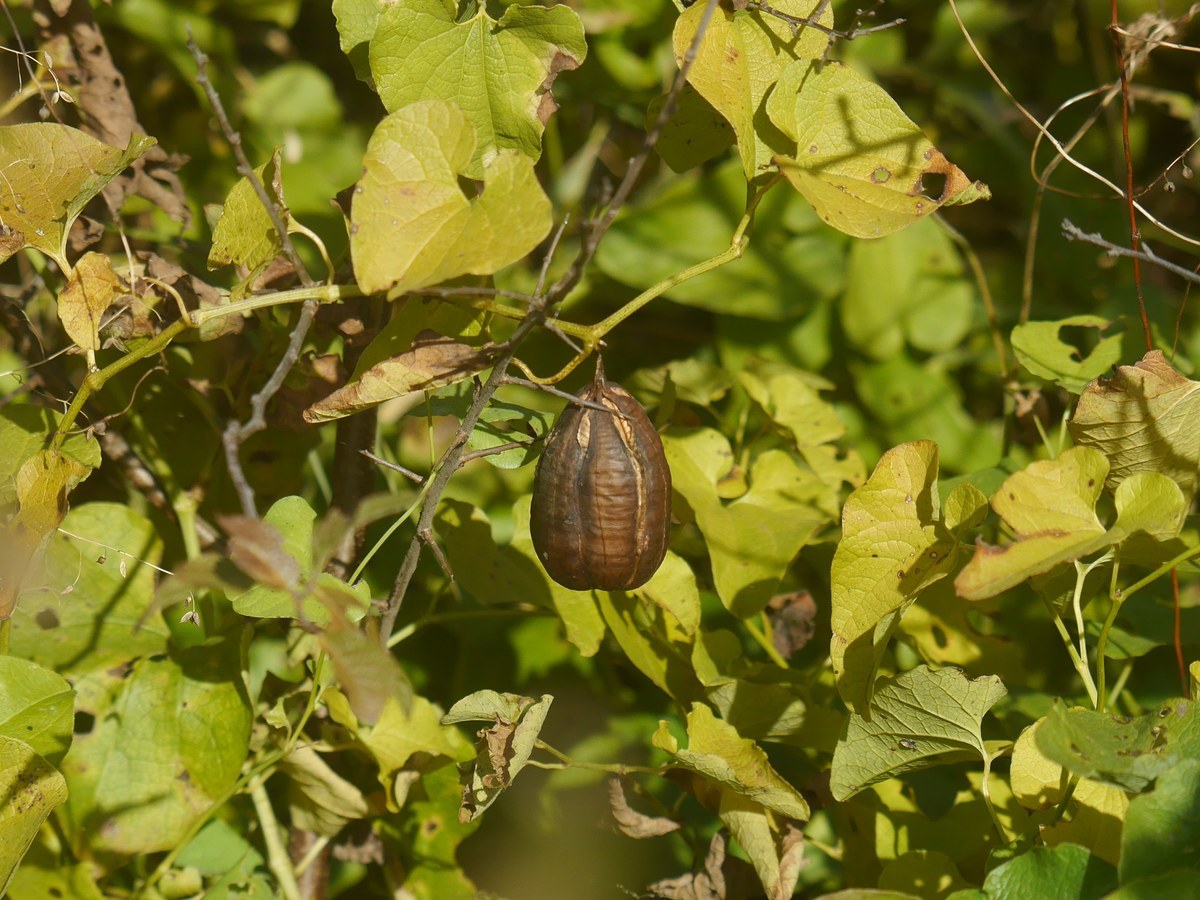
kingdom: Plantae
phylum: Tracheophyta
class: Magnoliopsida
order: Piperales
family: Aristolochiaceae
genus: Aristolochia
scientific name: Aristolochia clematitis
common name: Birthwort
